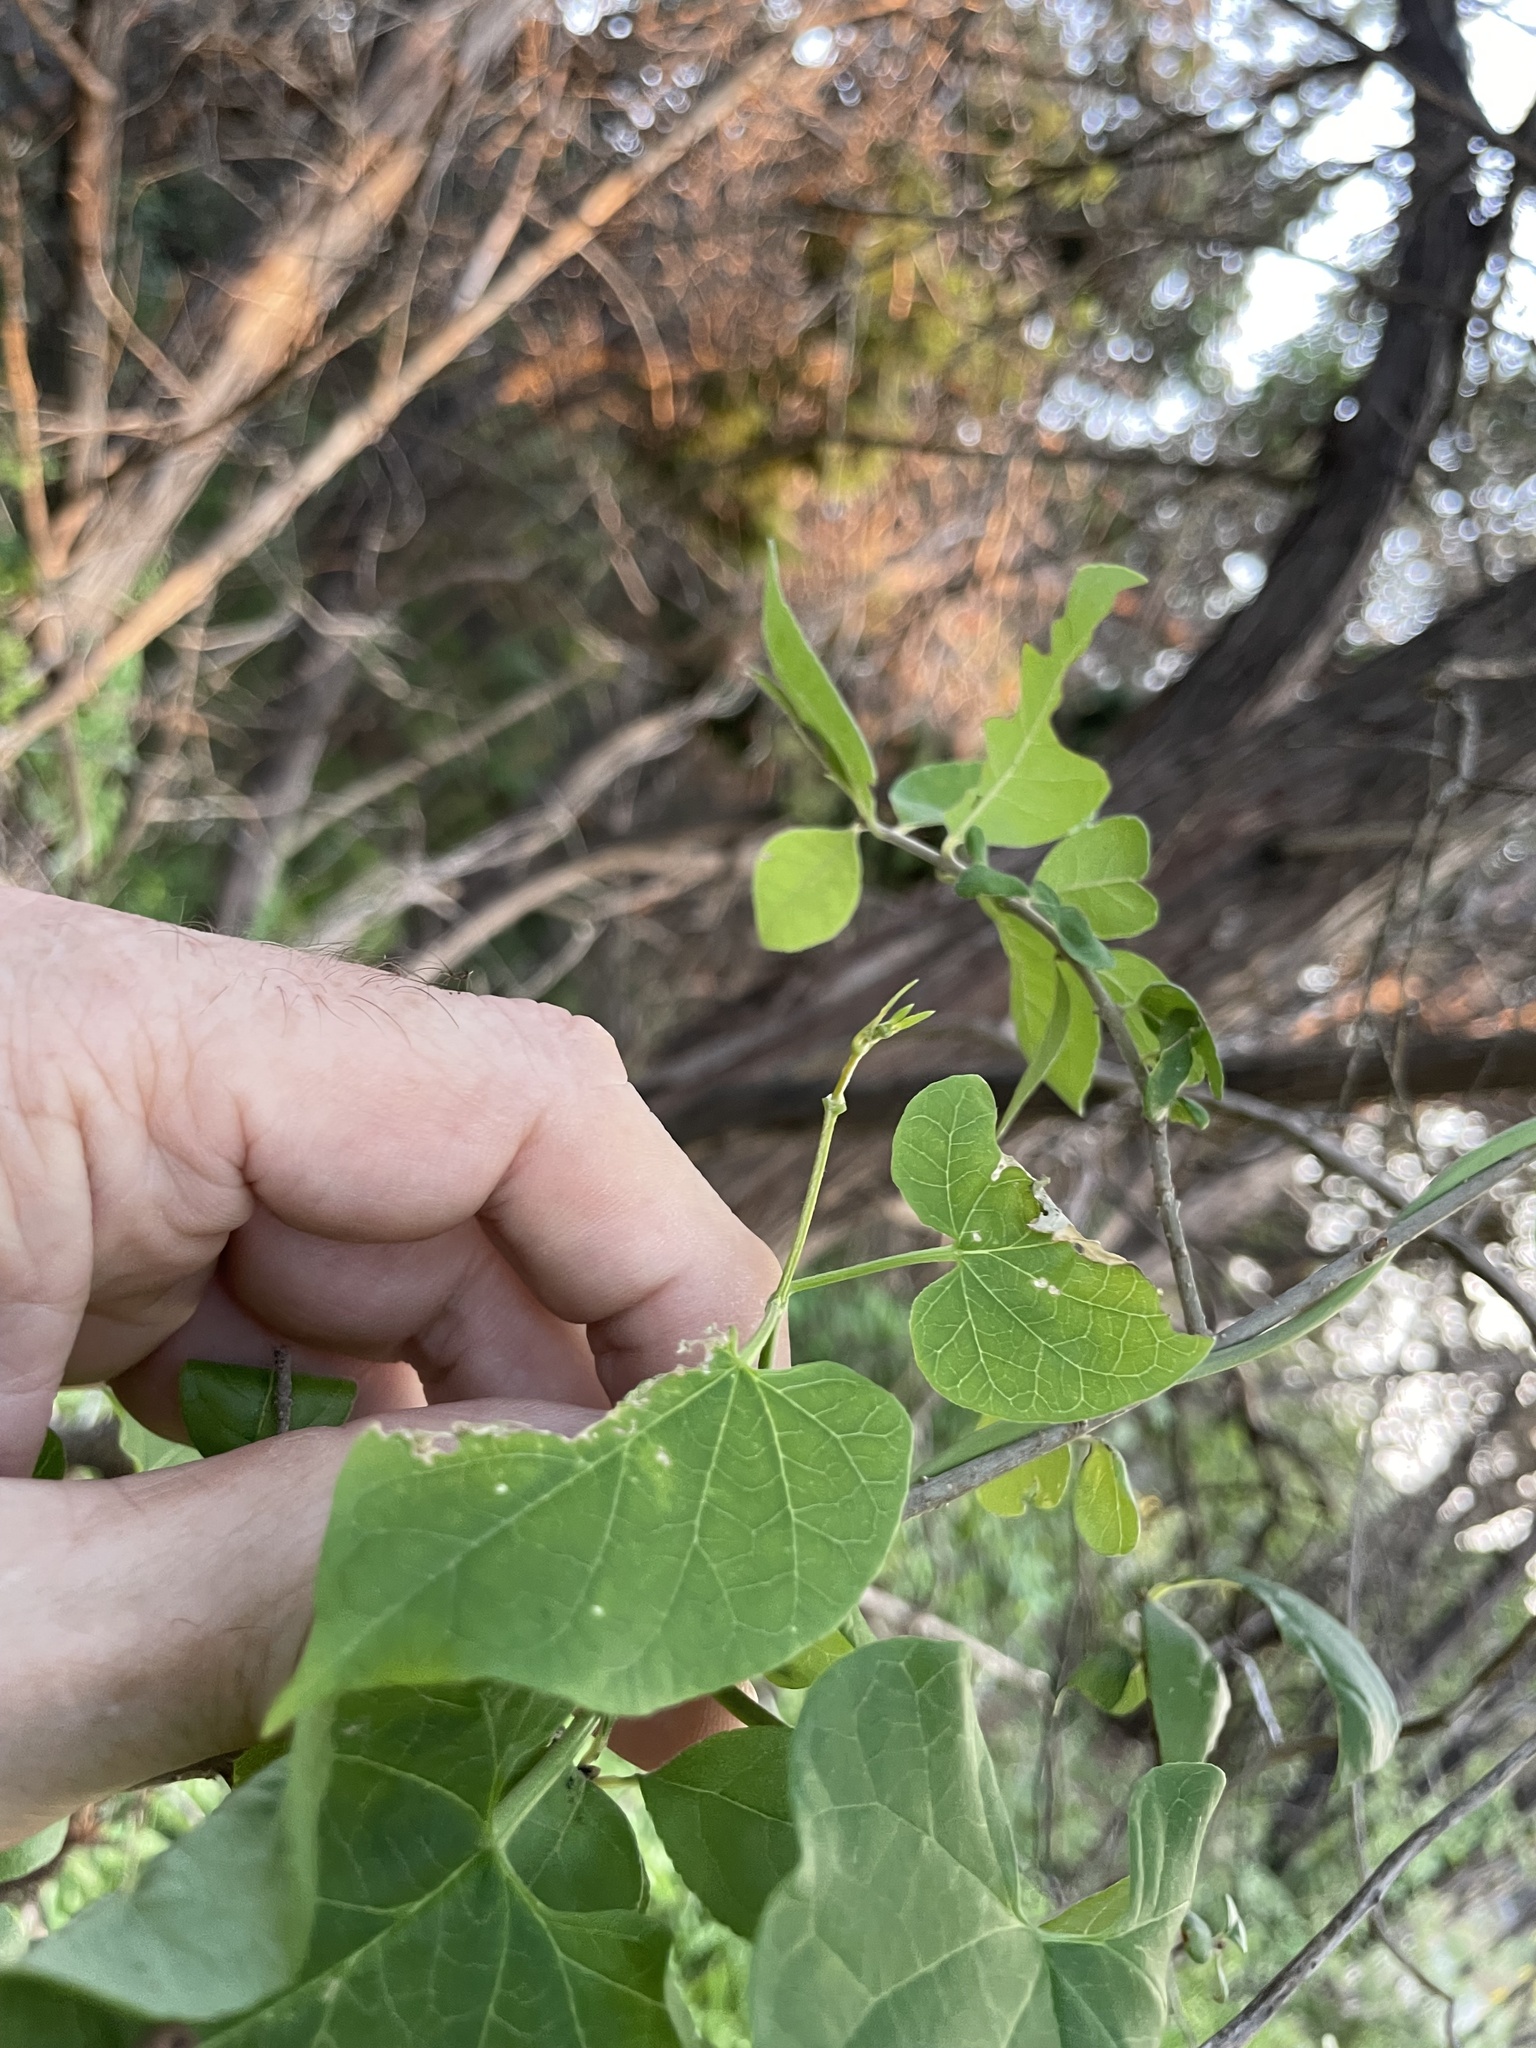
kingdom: Plantae
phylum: Tracheophyta
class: Magnoliopsida
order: Gentianales
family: Apocynaceae
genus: Cynanchum
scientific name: Cynanchum racemosum
